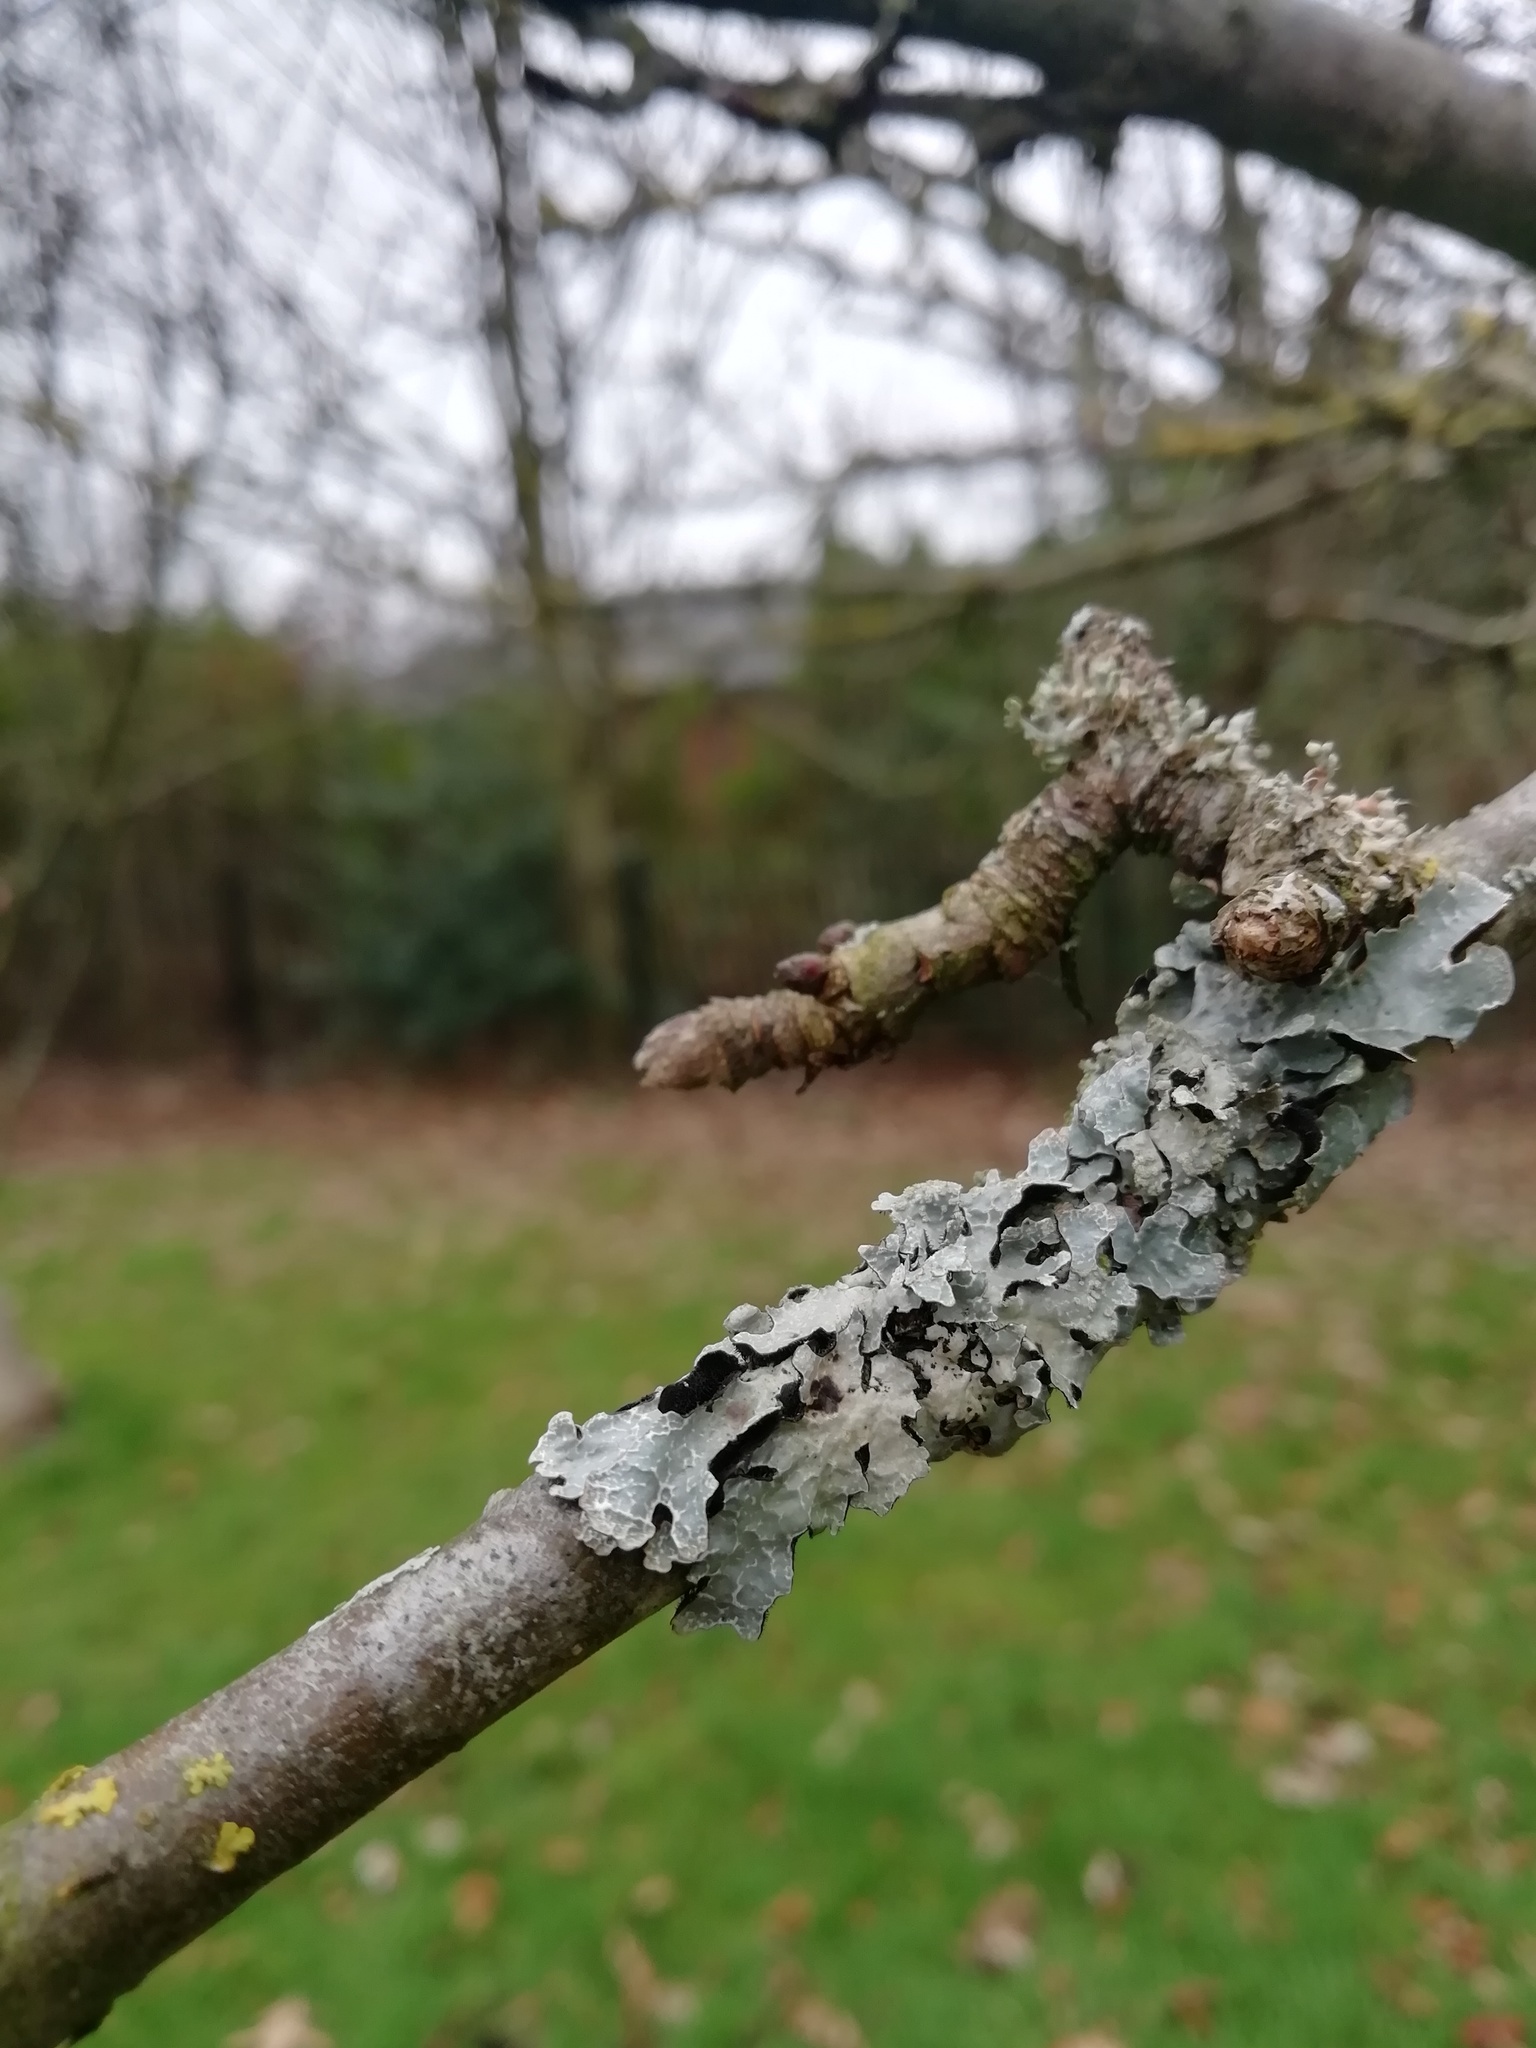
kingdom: Fungi
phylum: Ascomycota
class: Lecanoromycetes
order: Lecanorales
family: Parmeliaceae
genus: Parmelia
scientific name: Parmelia sulcata
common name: Netted shield lichen
